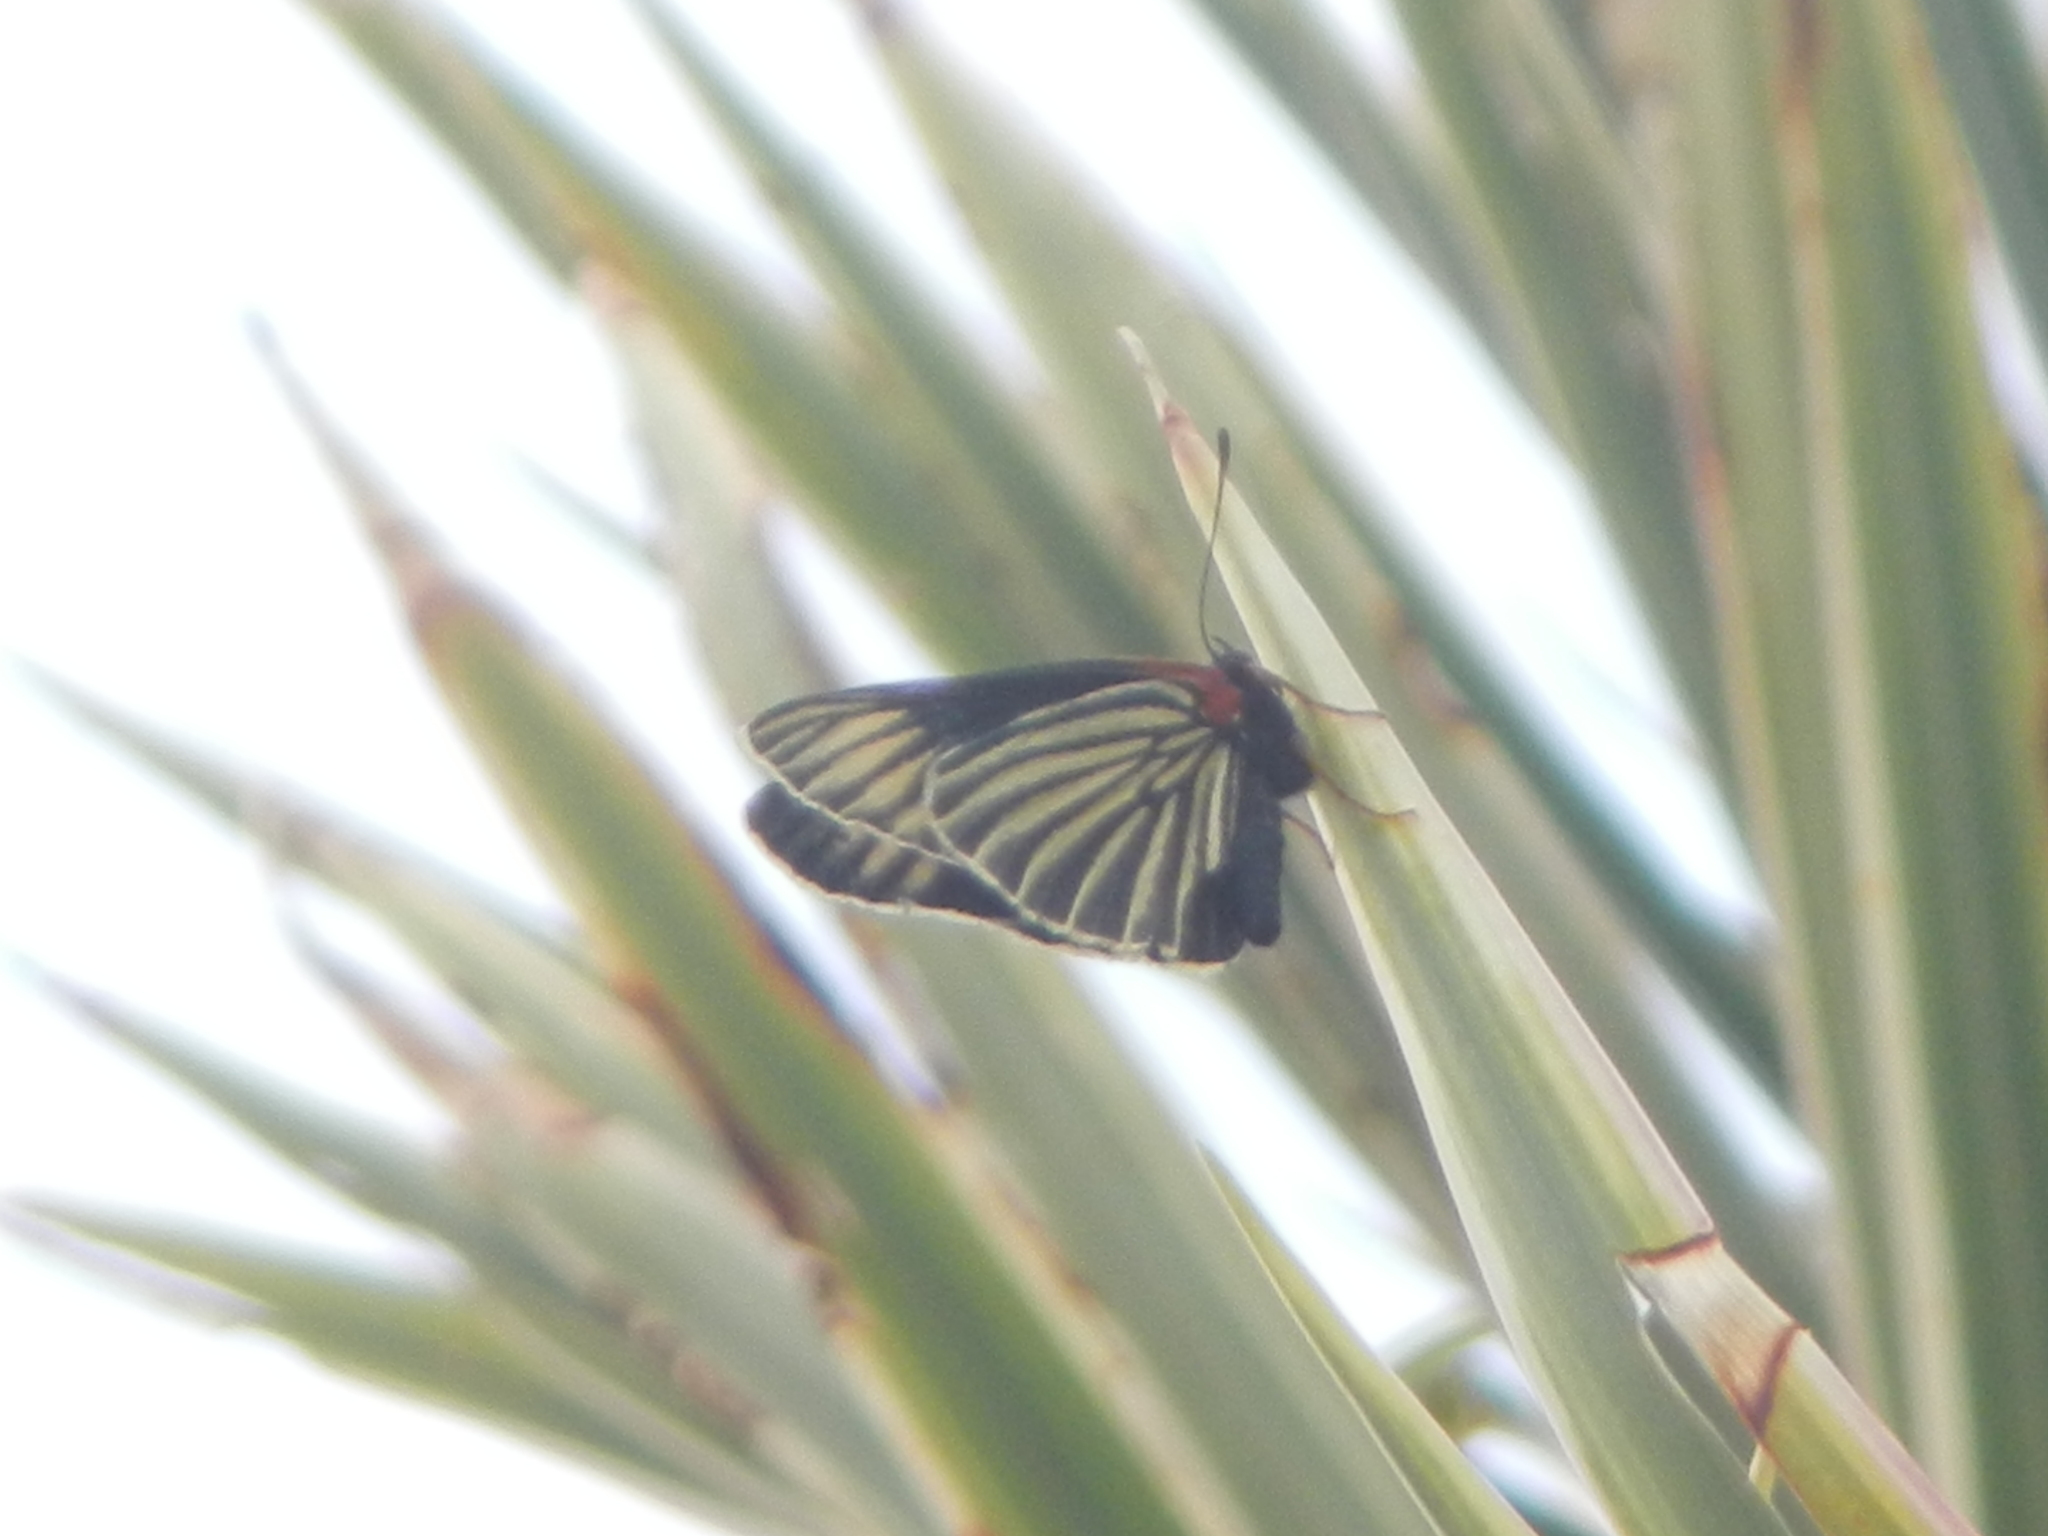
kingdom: Animalia
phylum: Arthropoda
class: Insecta
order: Lepidoptera
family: Nymphalidae
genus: Chlosyne
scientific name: Chlosyne ehrenbergii
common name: White-rayed patch
